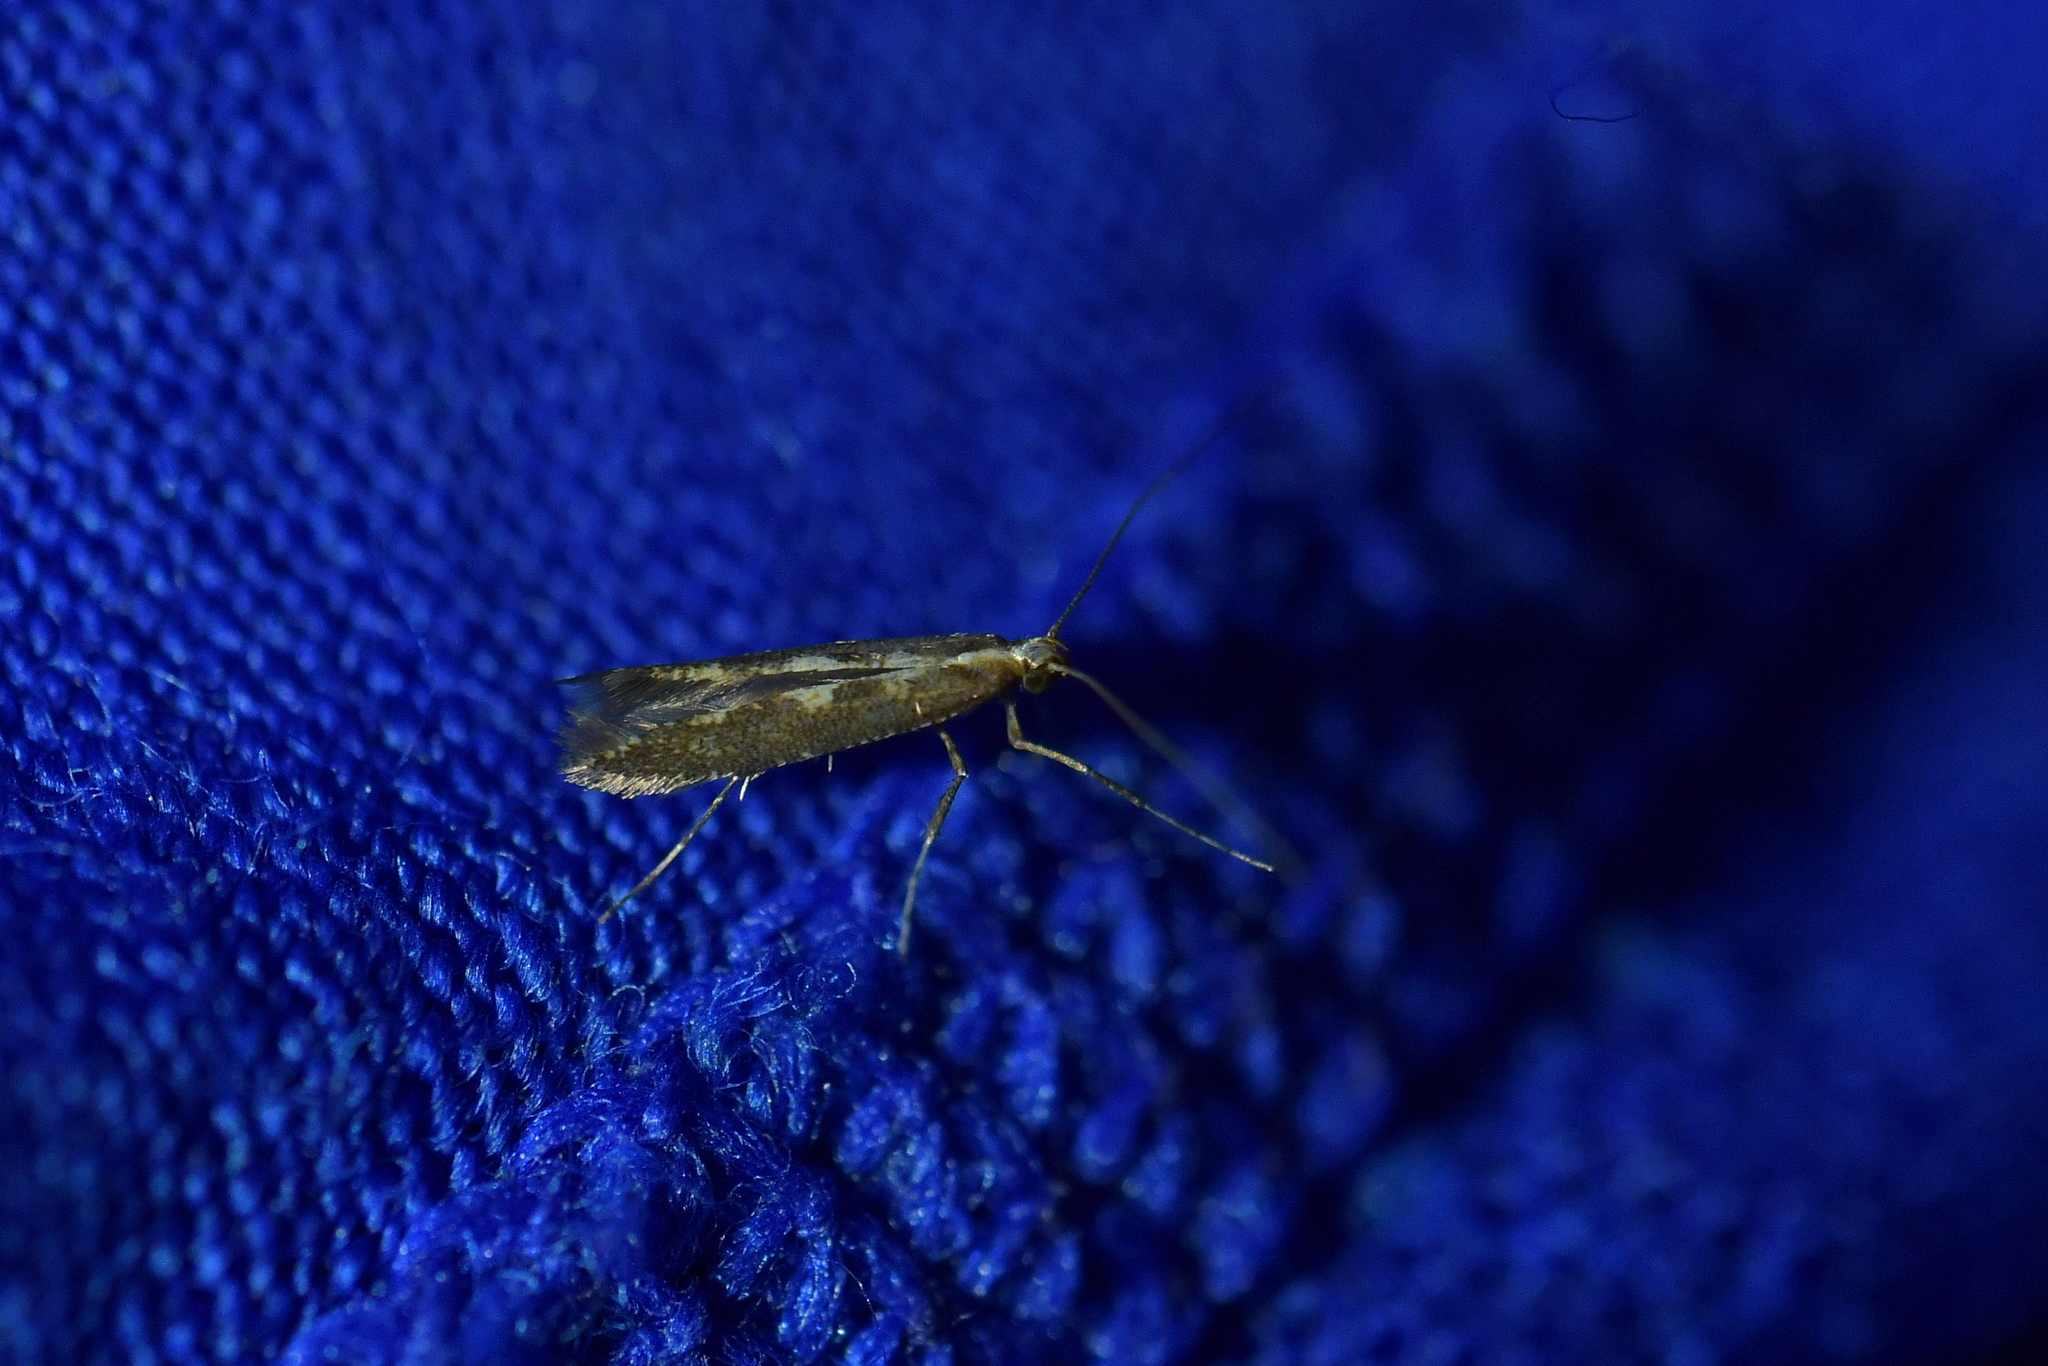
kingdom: Animalia
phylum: Arthropoda
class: Insecta
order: Lepidoptera
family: Gracillariidae
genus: Caloptilia
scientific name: Caloptilia selenitis
